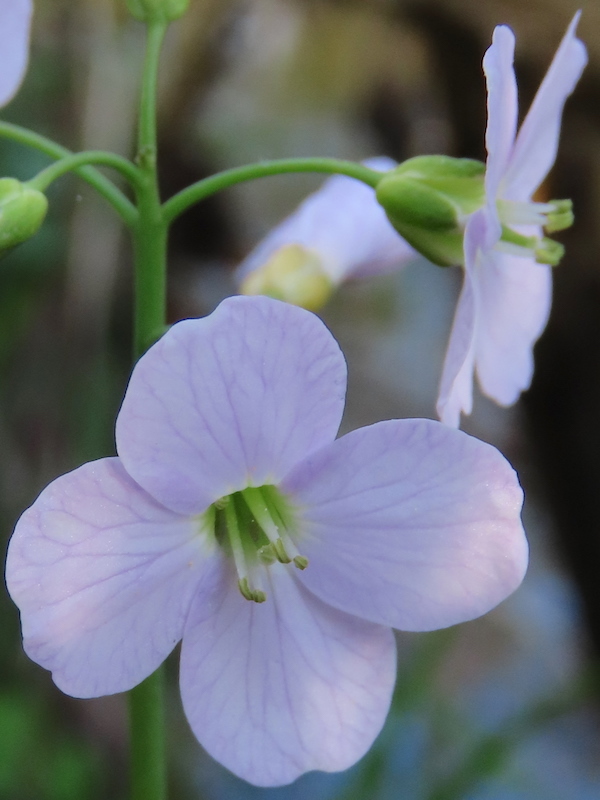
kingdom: Plantae
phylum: Tracheophyta
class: Magnoliopsida
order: Brassicales
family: Brassicaceae
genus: Cardamine
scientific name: Cardamine pratensis
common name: Cuckoo flower
